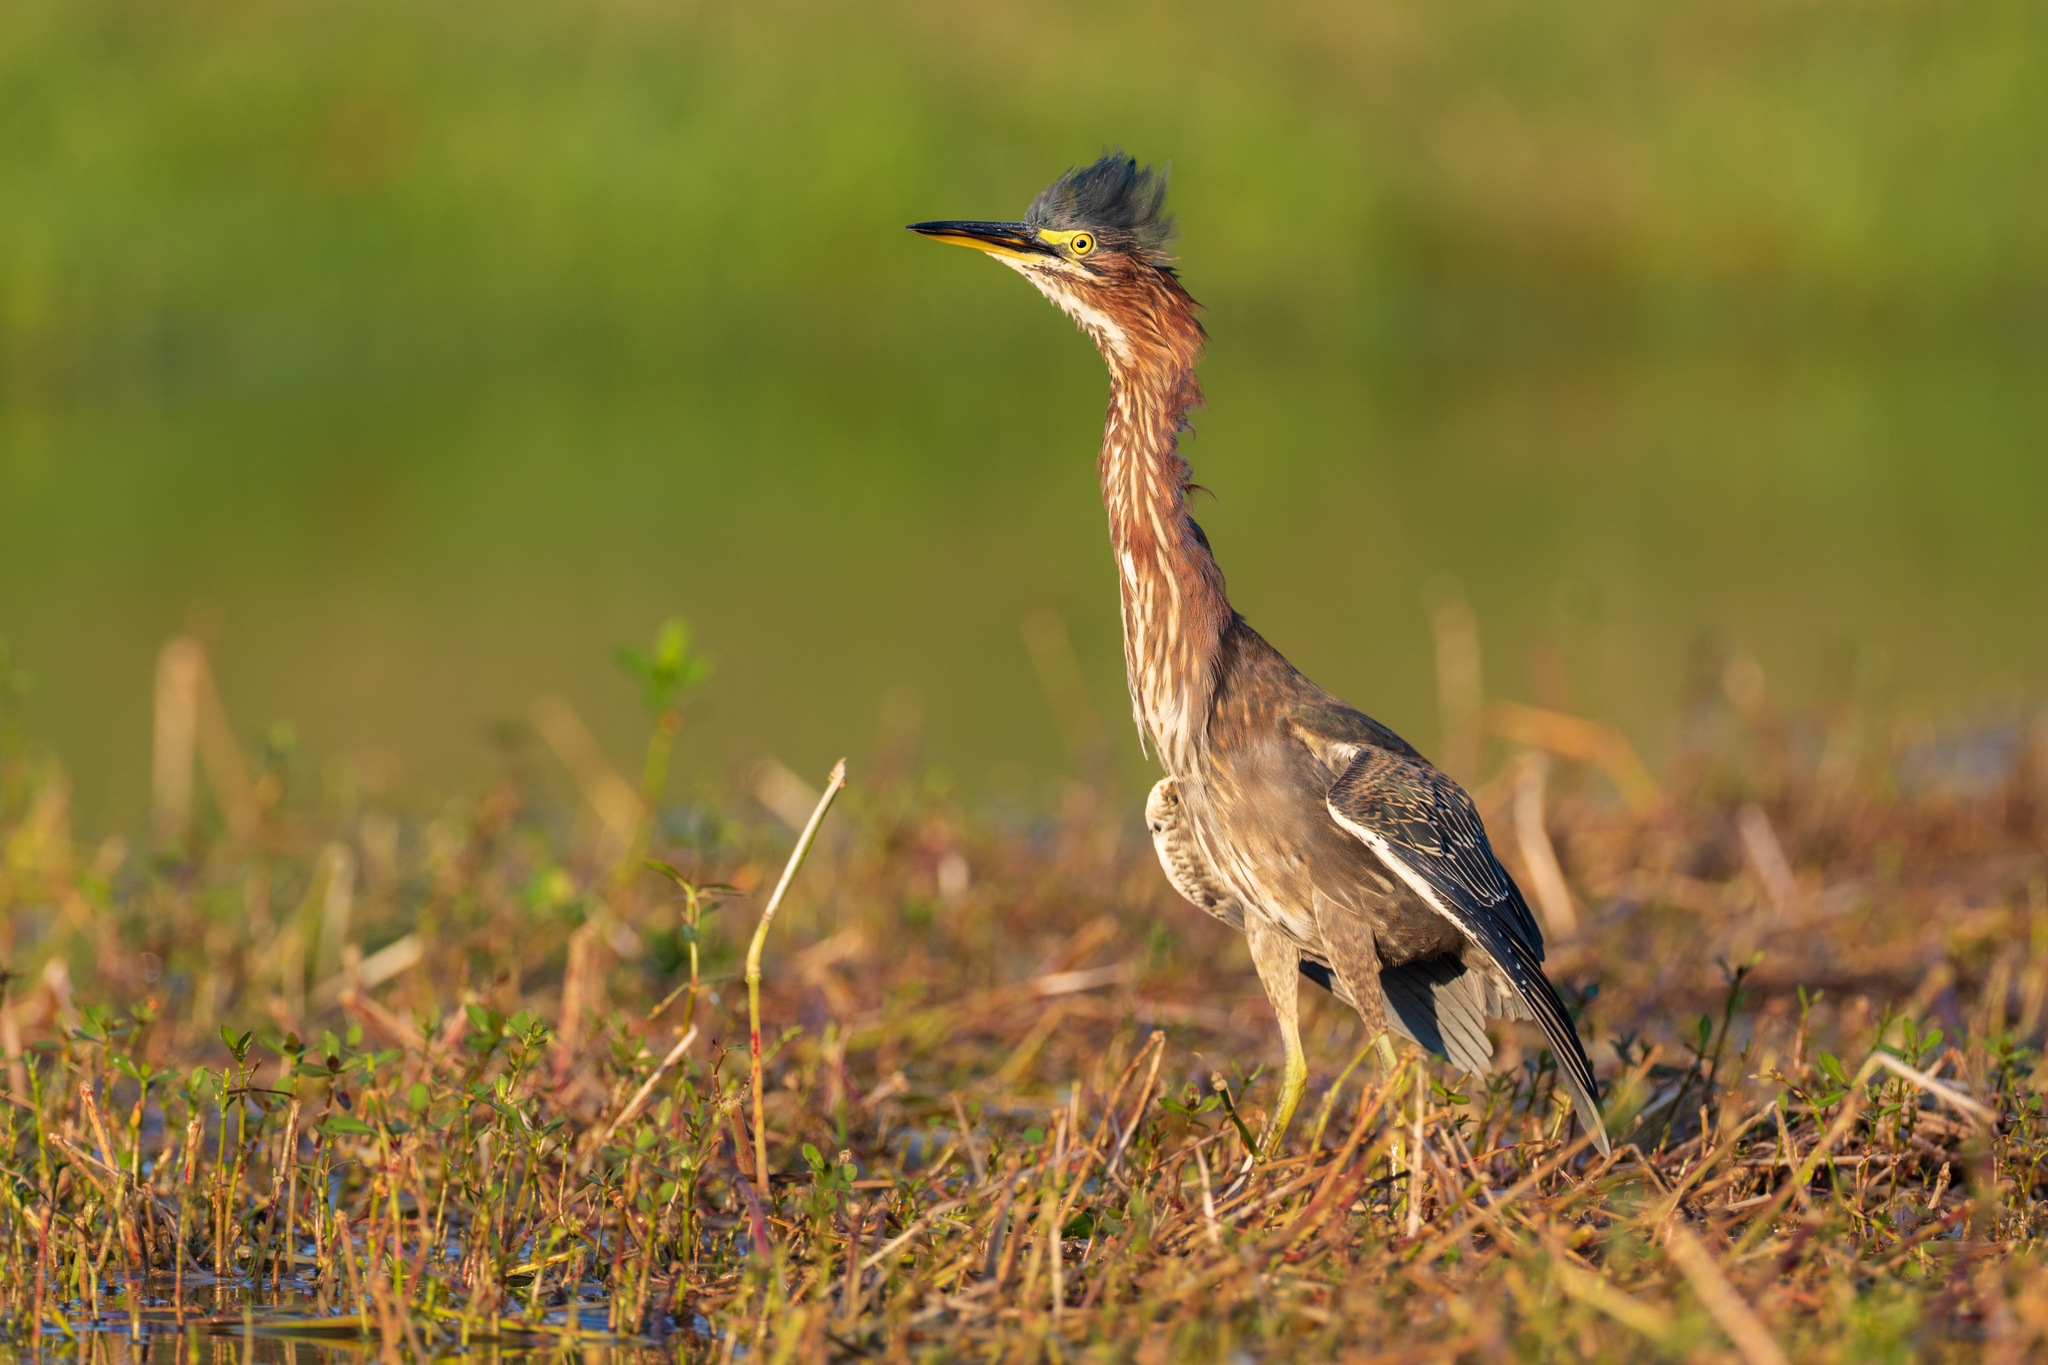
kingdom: Animalia
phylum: Chordata
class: Aves
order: Pelecaniformes
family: Ardeidae
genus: Butorides
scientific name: Butorides virescens
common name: Green heron
